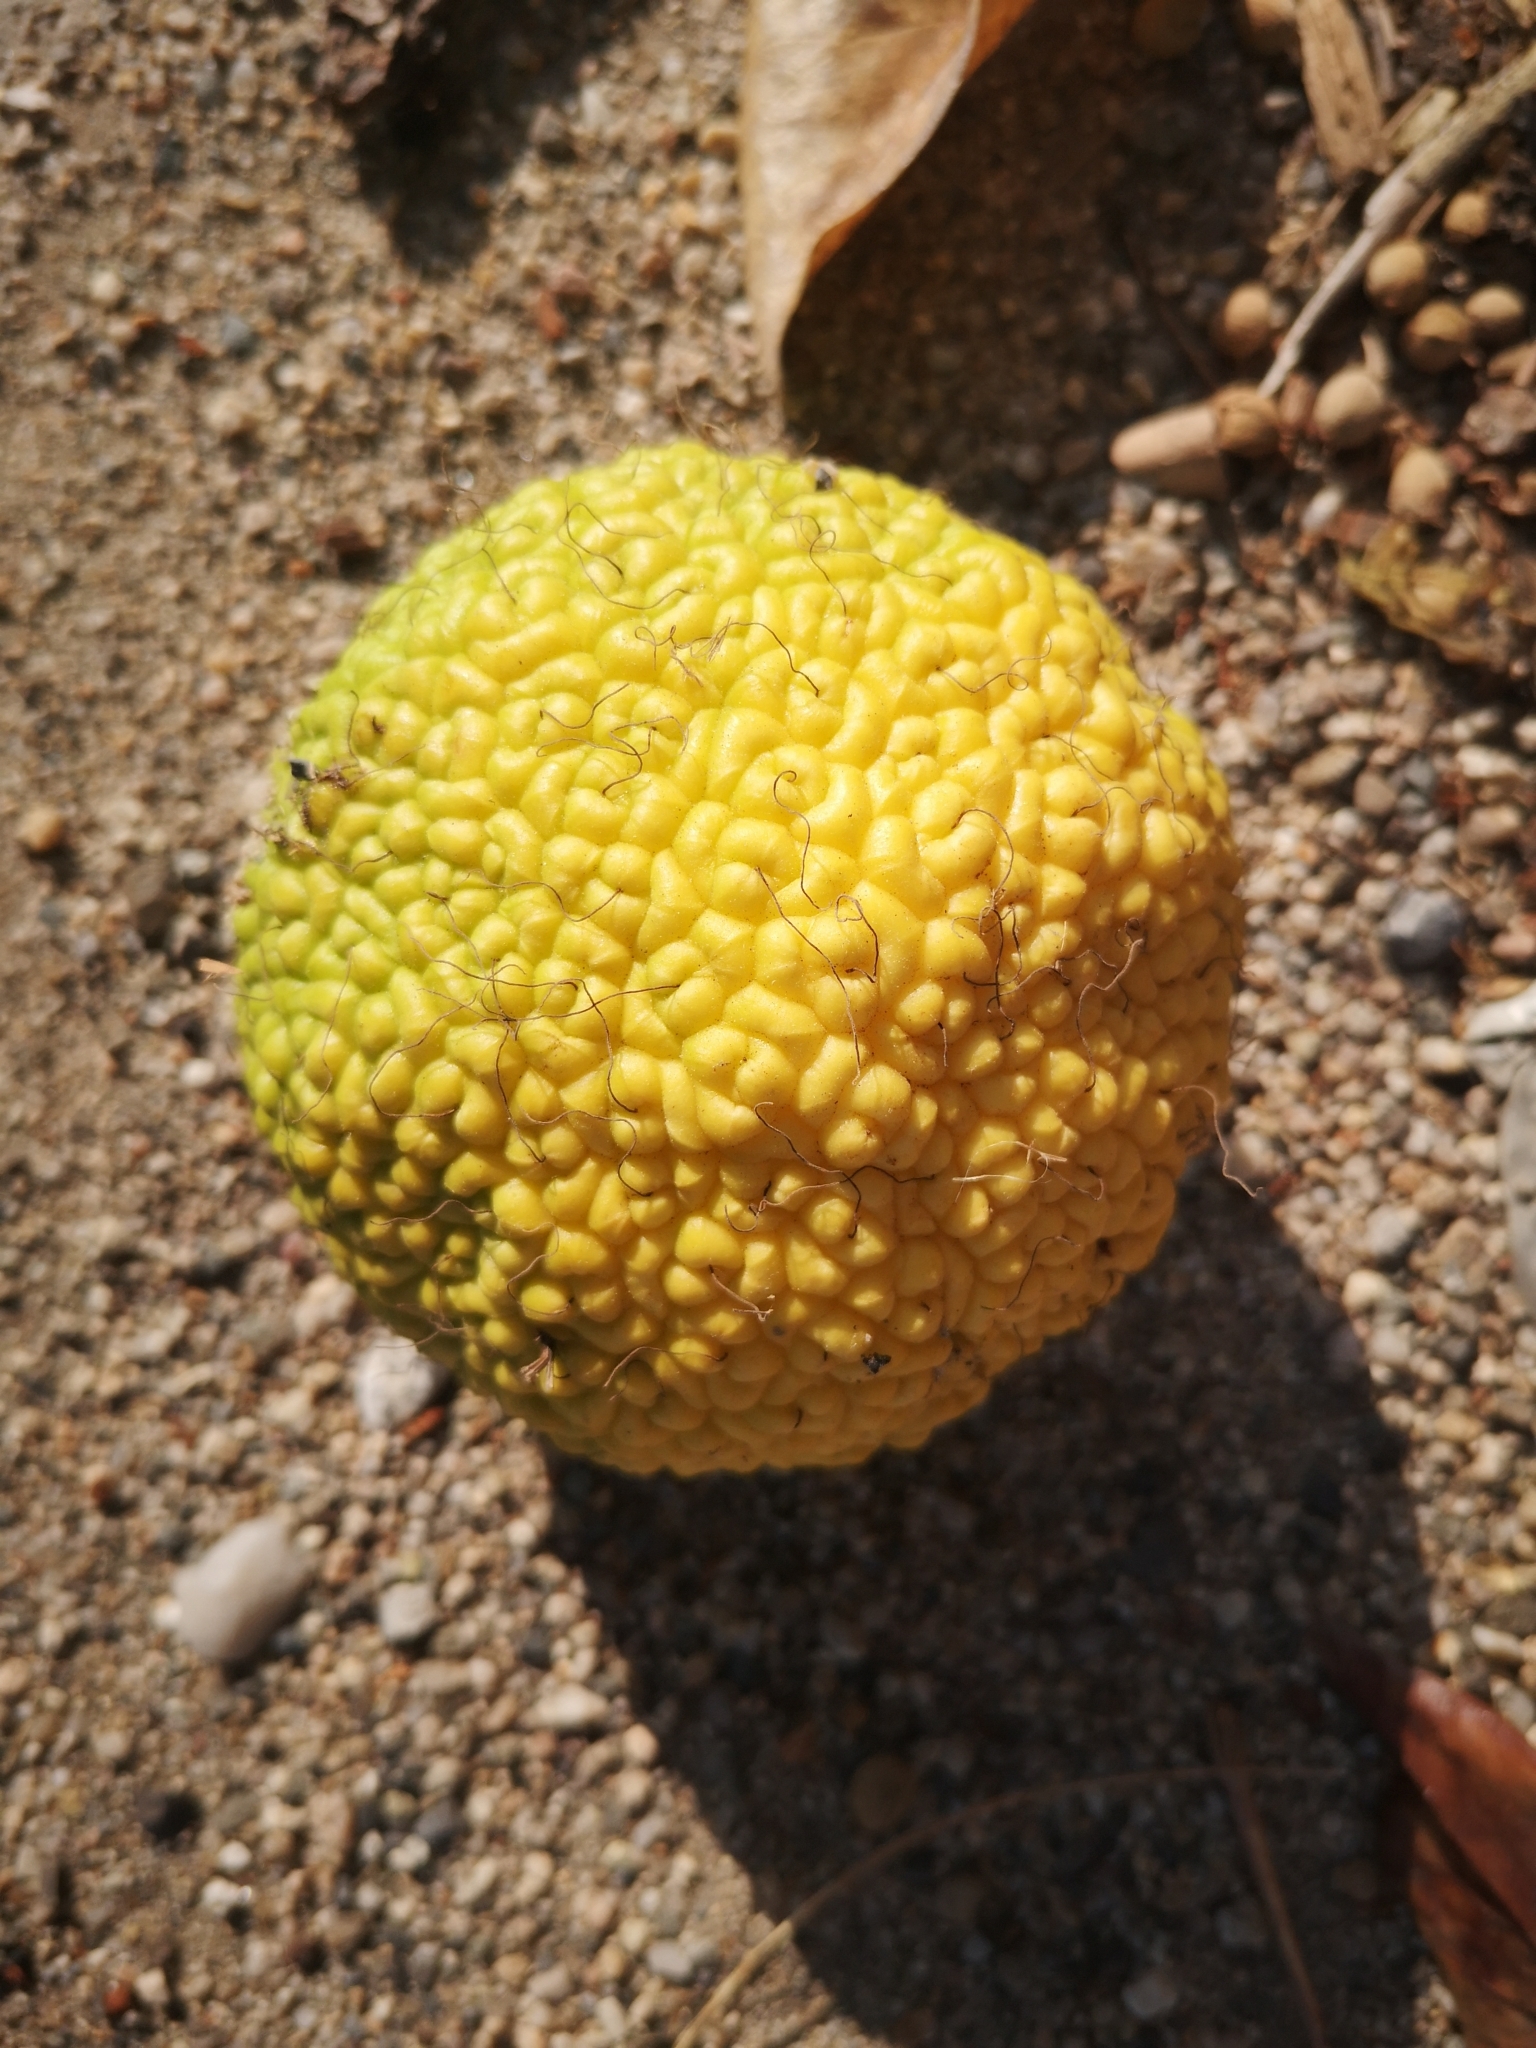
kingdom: Plantae
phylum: Tracheophyta
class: Magnoliopsida
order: Rosales
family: Moraceae
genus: Maclura
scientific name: Maclura pomifera
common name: Osage-orange
